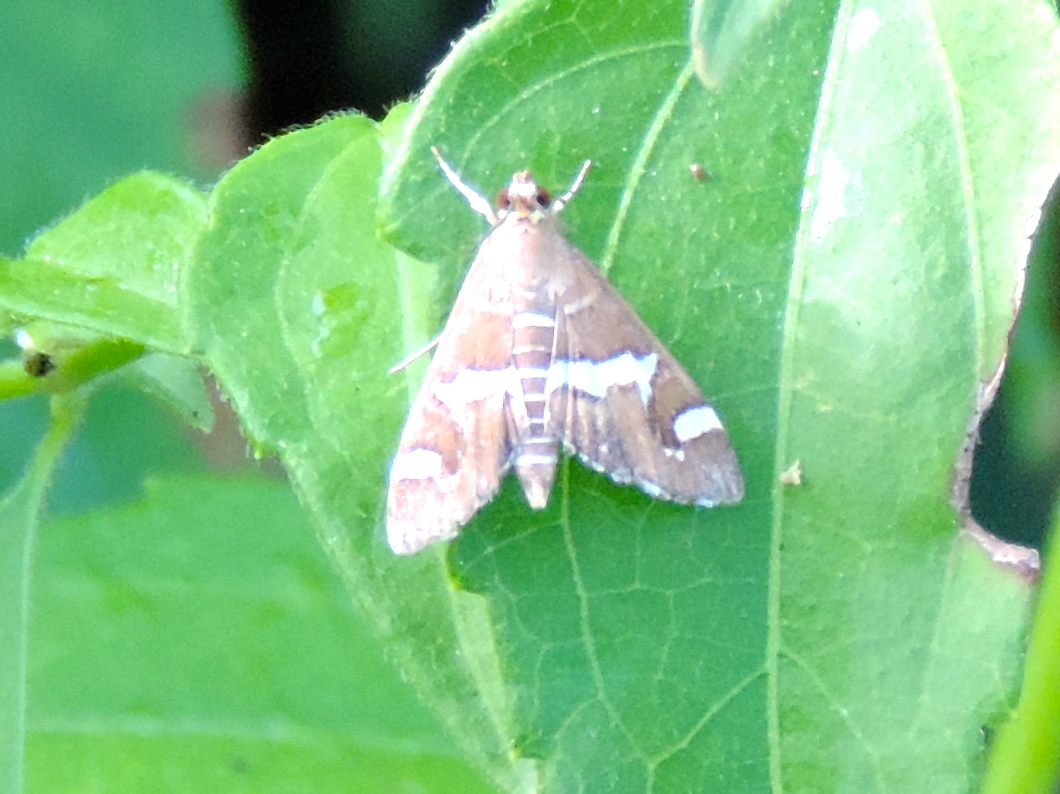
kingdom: Animalia
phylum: Arthropoda
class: Insecta
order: Lepidoptera
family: Crambidae
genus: Spoladea
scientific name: Spoladea recurvalis
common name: Beet webworm moth
